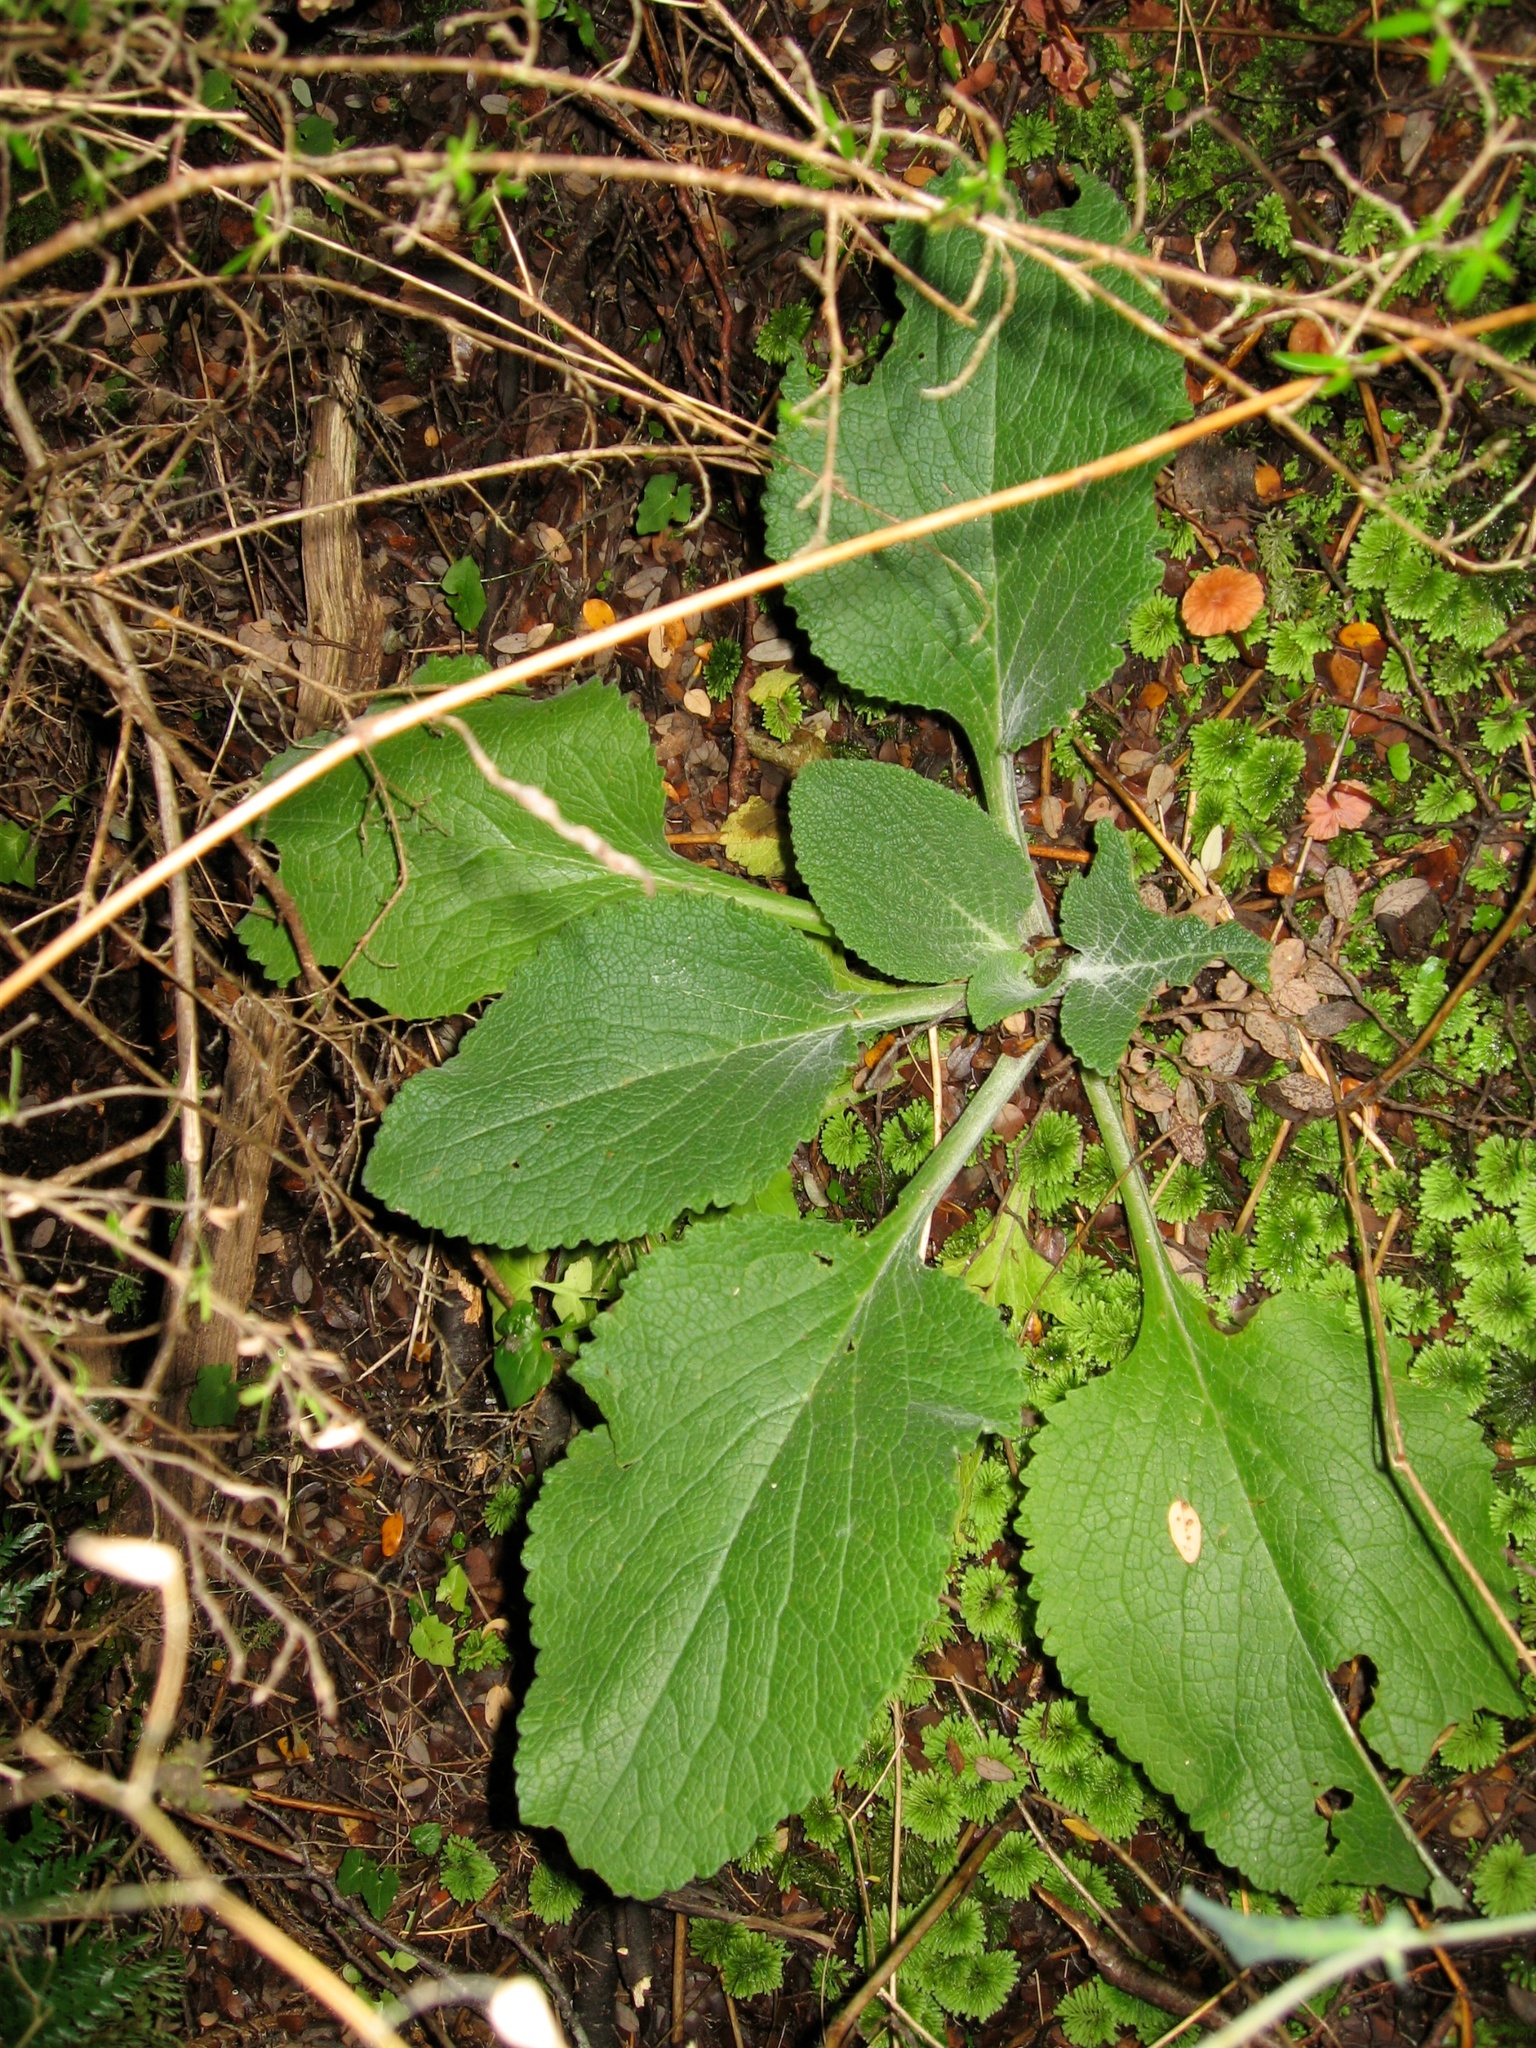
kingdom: Plantae
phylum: Tracheophyta
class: Magnoliopsida
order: Lamiales
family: Plantaginaceae
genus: Digitalis
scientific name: Digitalis purpurea
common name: Foxglove
